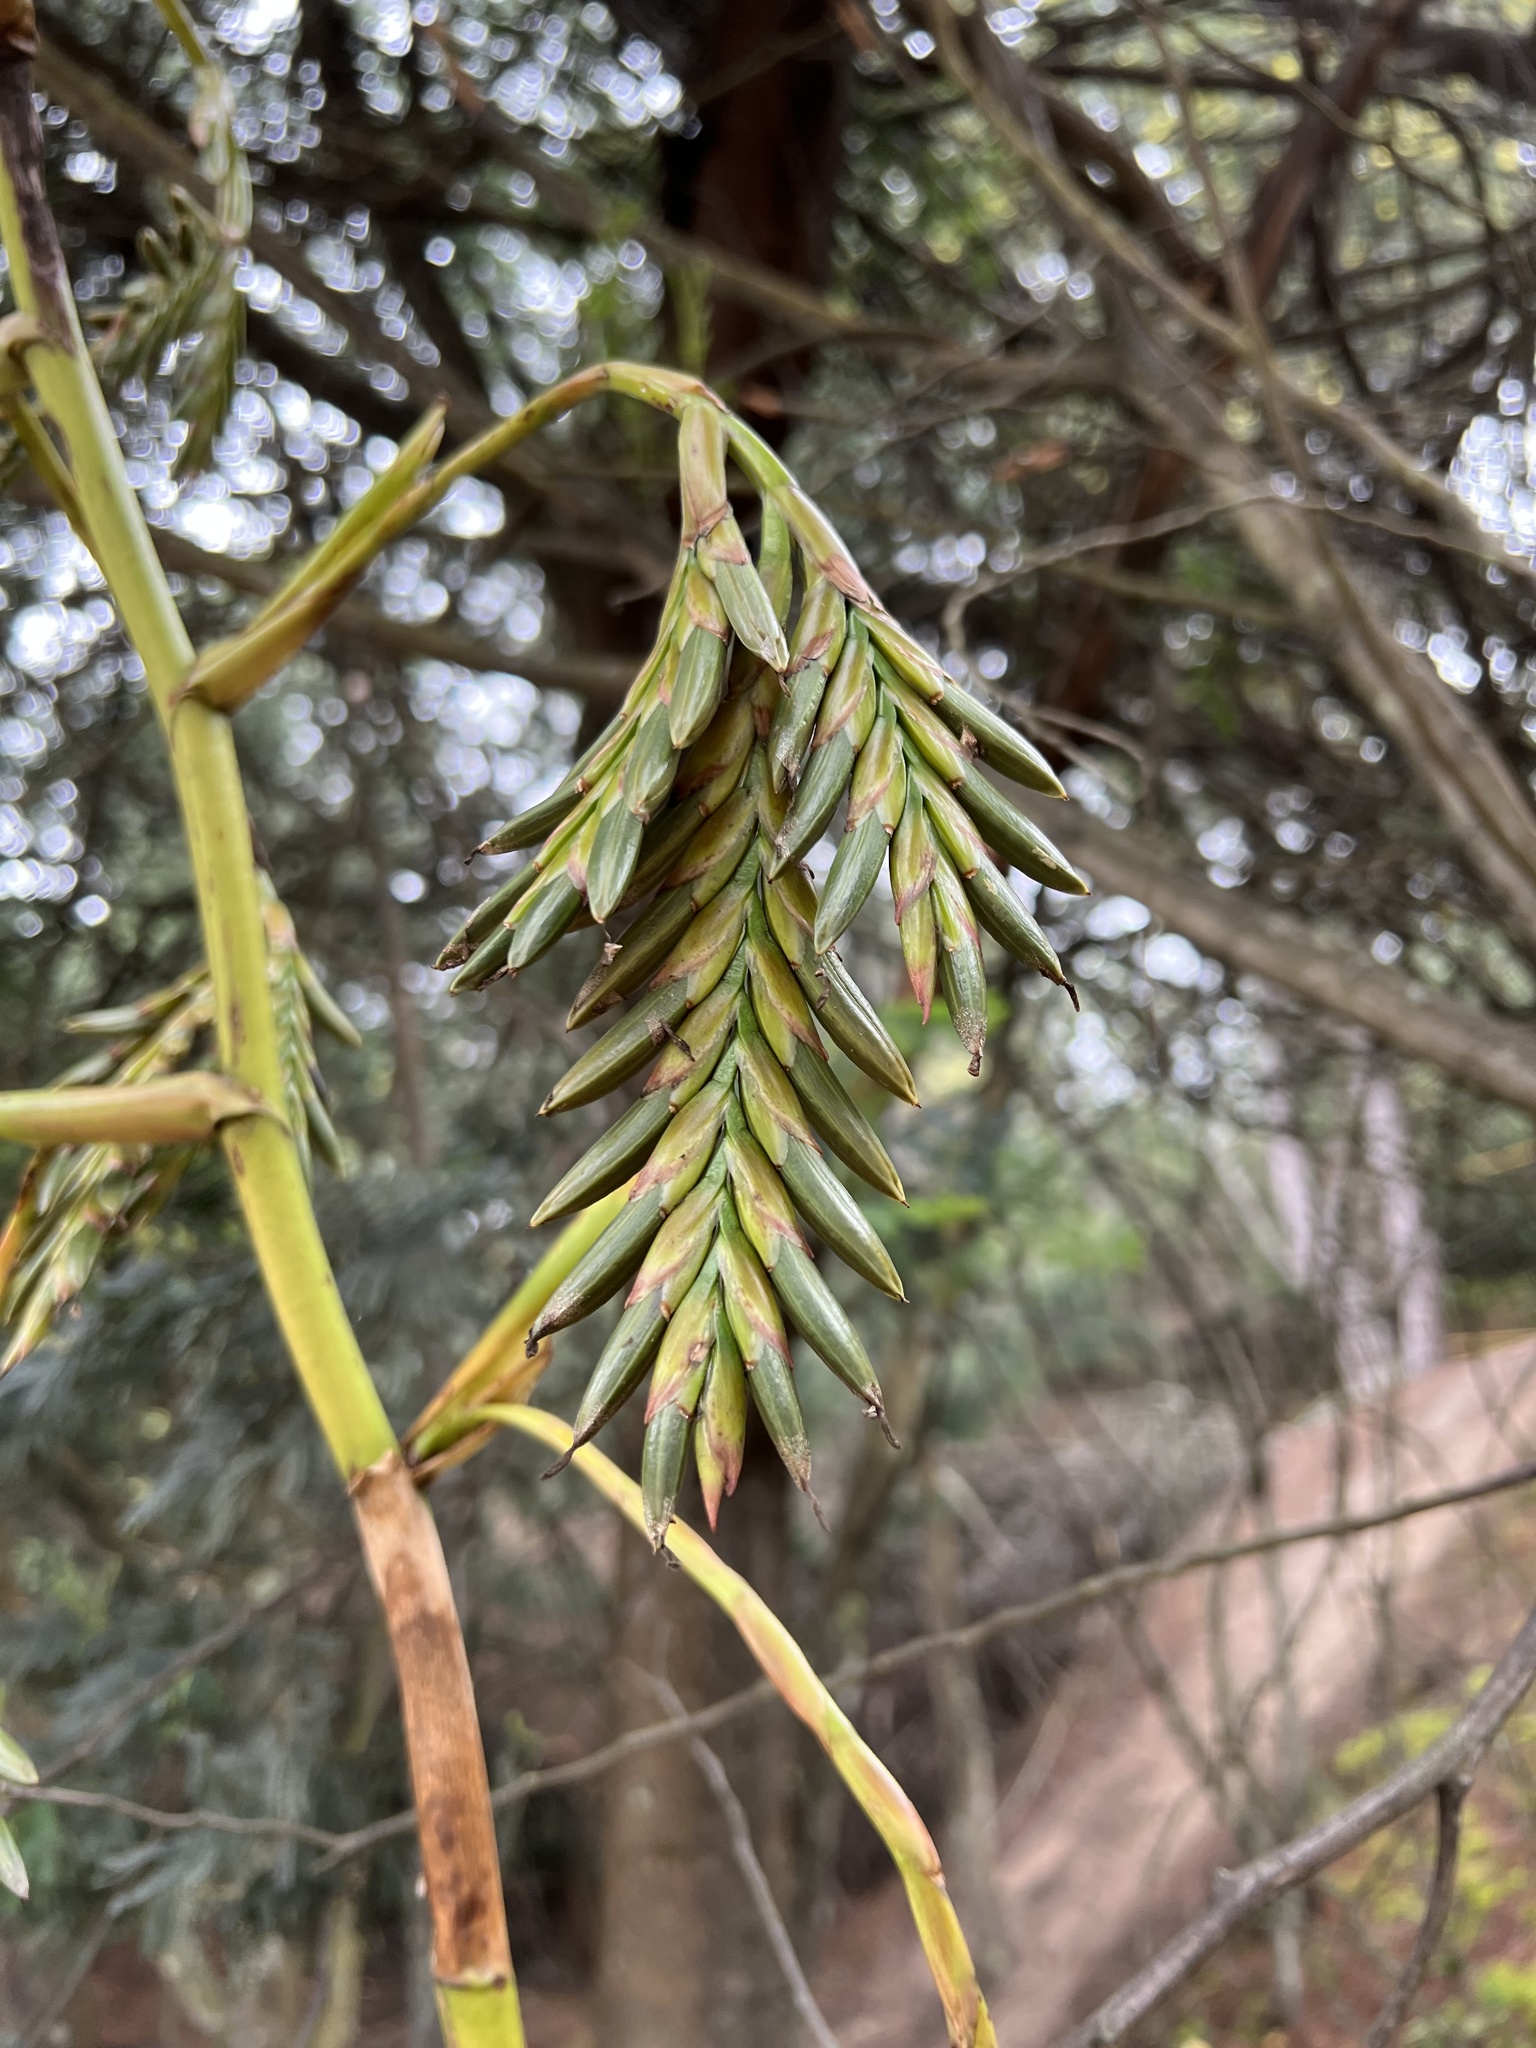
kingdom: Plantae
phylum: Tracheophyta
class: Liliopsida
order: Poales
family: Bromeliaceae
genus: Tillandsia
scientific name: Tillandsia denudata
